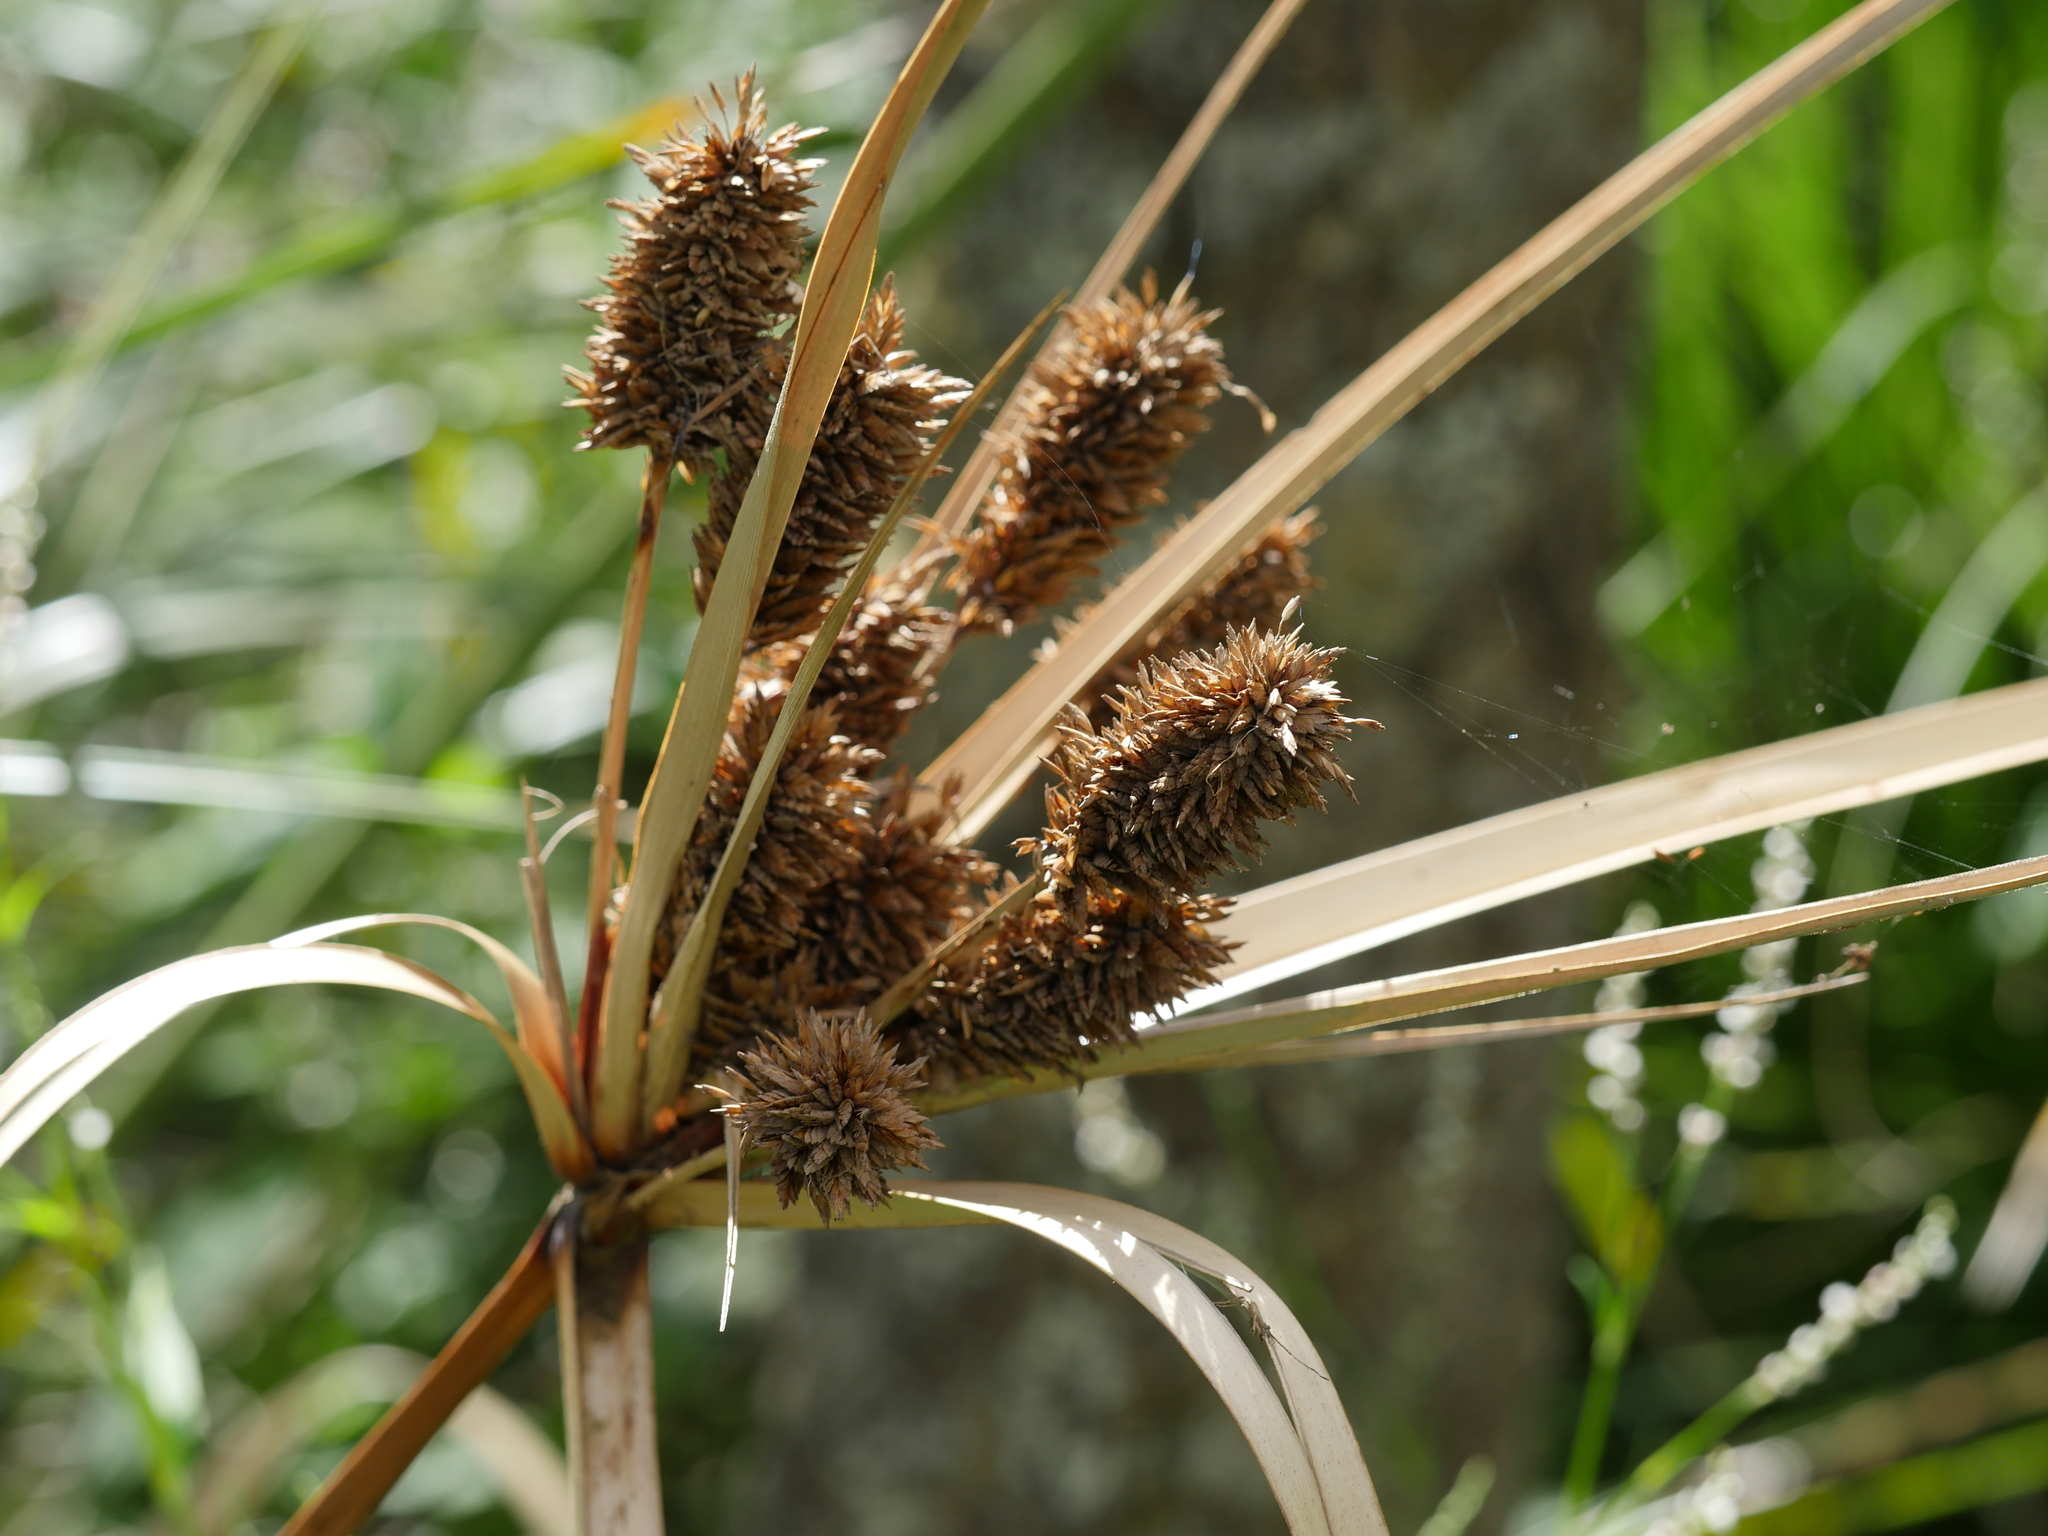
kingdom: Plantae
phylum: Tracheophyta
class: Liliopsida
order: Poales
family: Cyperaceae
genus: Cyperus
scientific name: Cyperus ustulatus
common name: Giant umbrella-sedge
